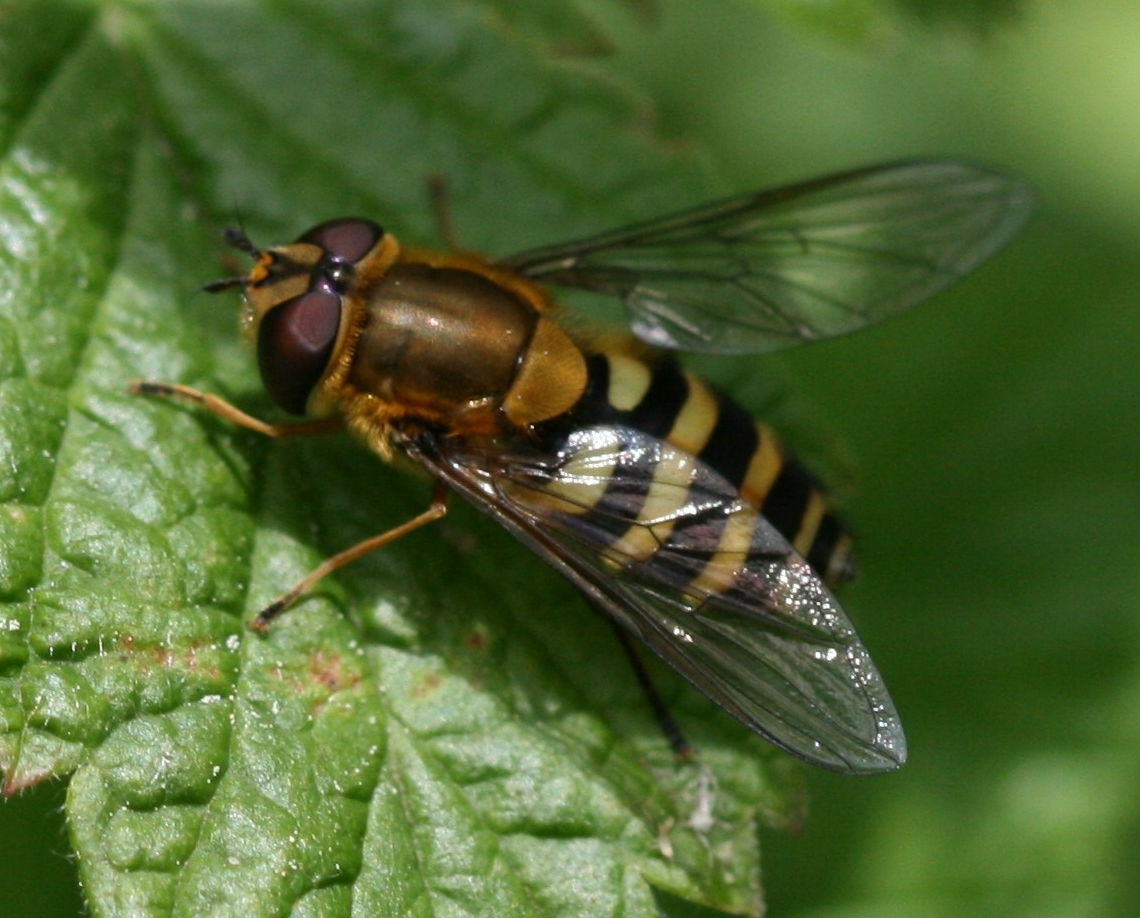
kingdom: Animalia
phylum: Arthropoda
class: Insecta
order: Diptera
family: Syrphidae
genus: Syrphus
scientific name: Syrphus
